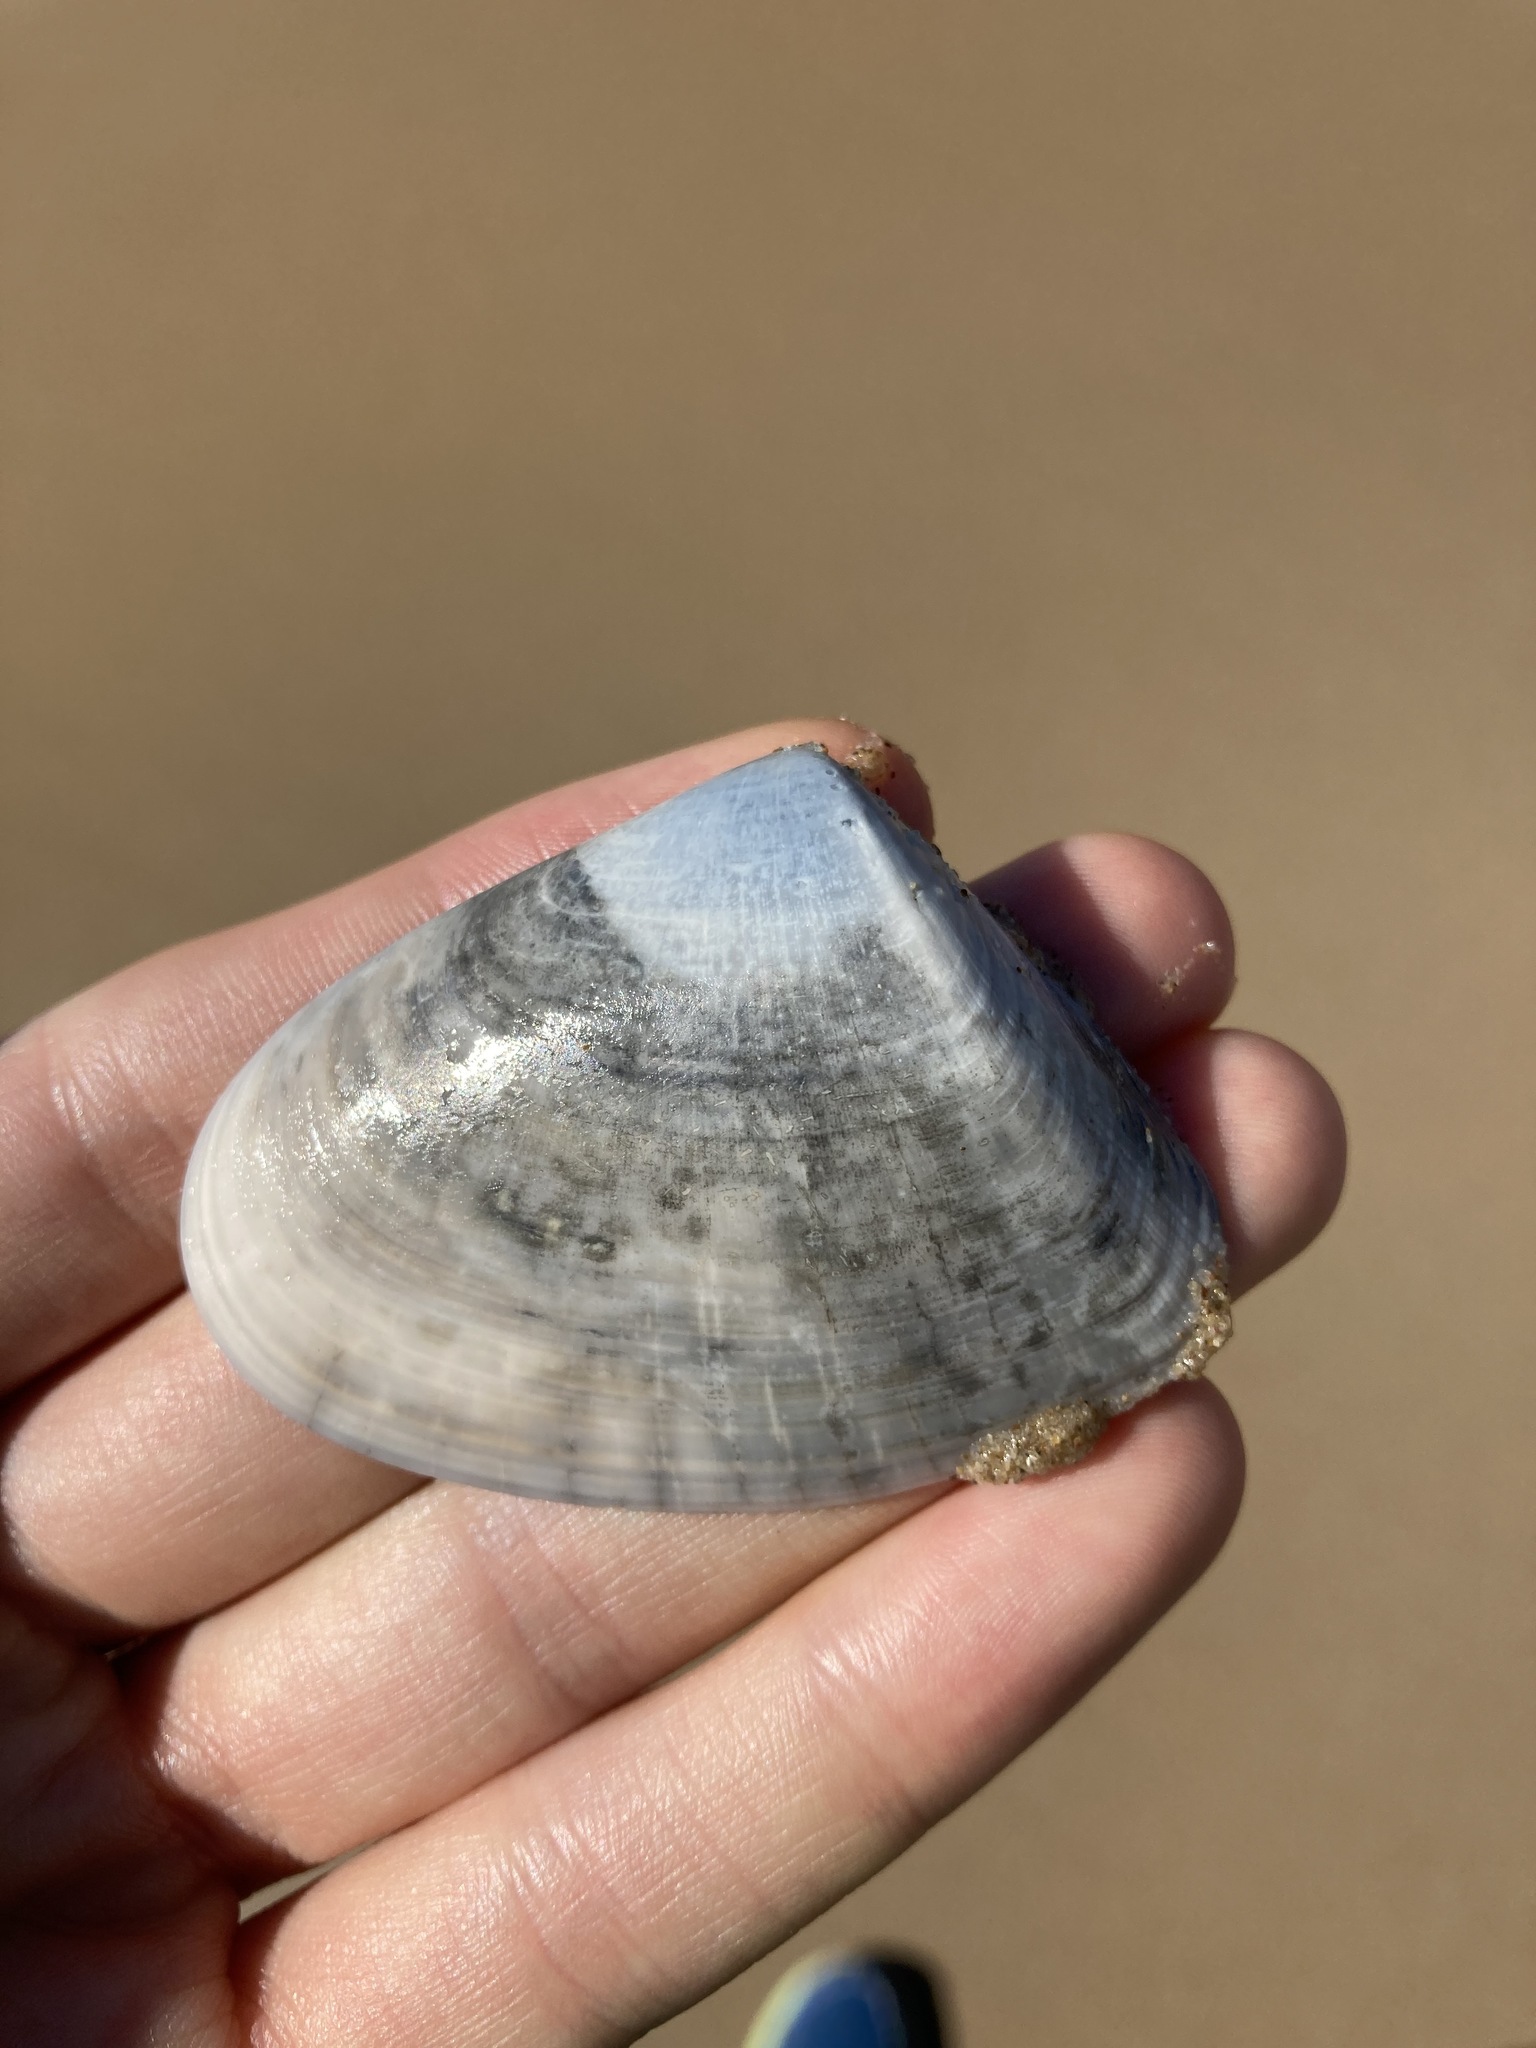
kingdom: Animalia
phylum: Mollusca
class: Bivalvia
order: Cardiida
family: Donacidae
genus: Latona
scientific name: Latona deltoides
